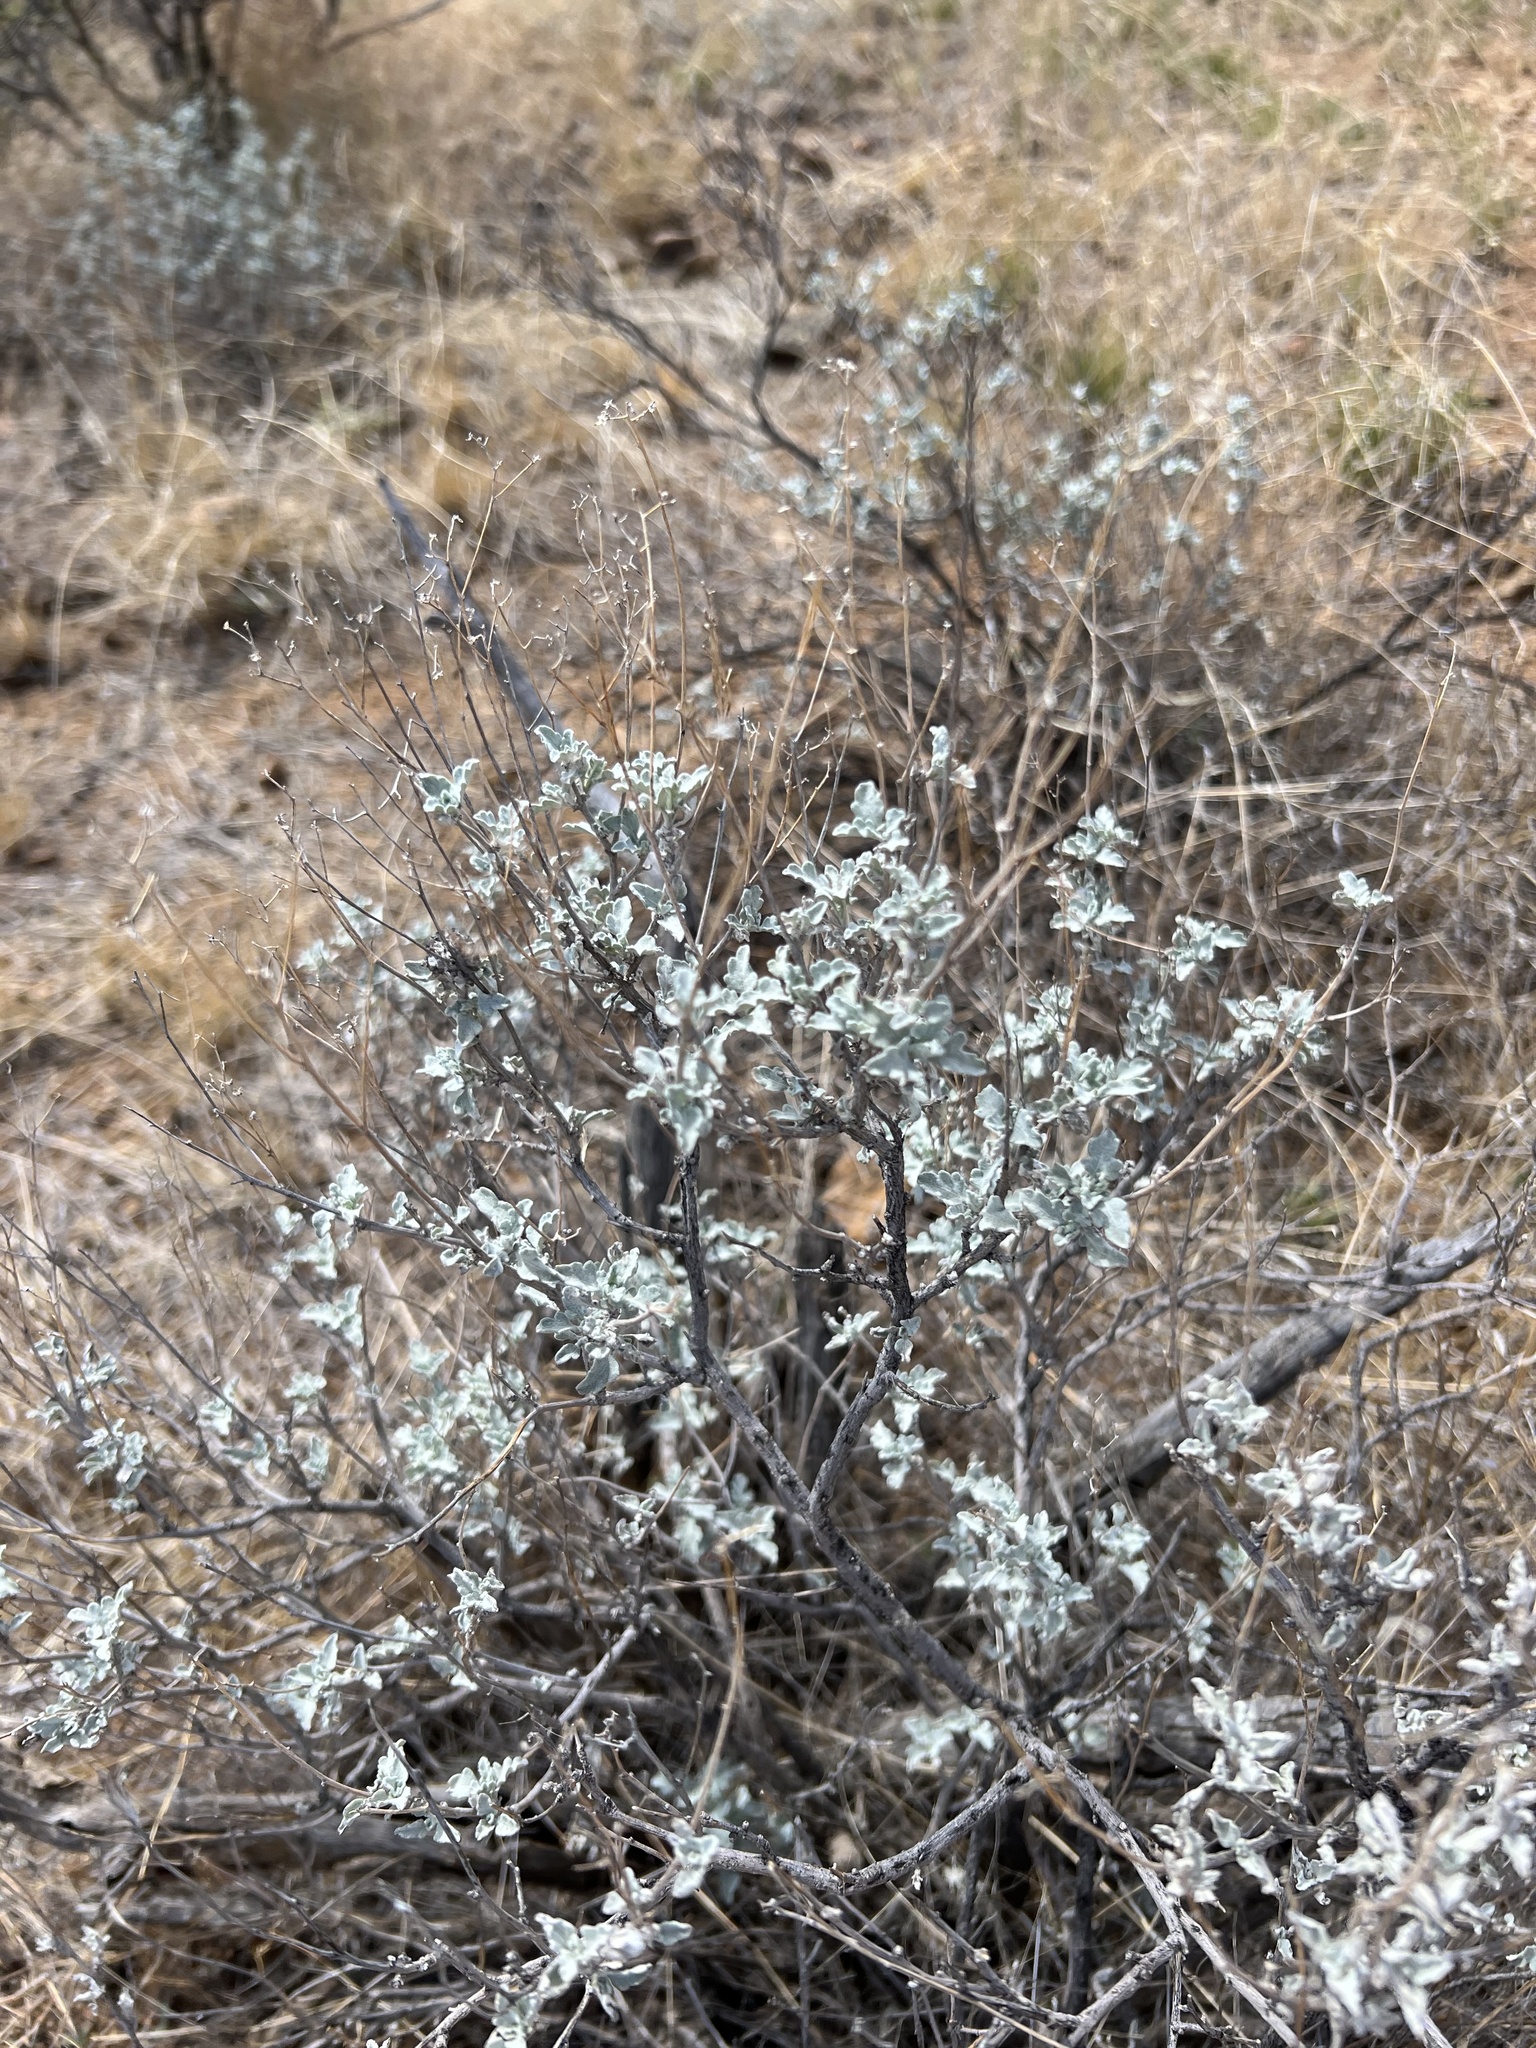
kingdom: Plantae
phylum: Tracheophyta
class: Magnoliopsida
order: Asterales
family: Asteraceae
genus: Parthenium
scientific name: Parthenium incanum
